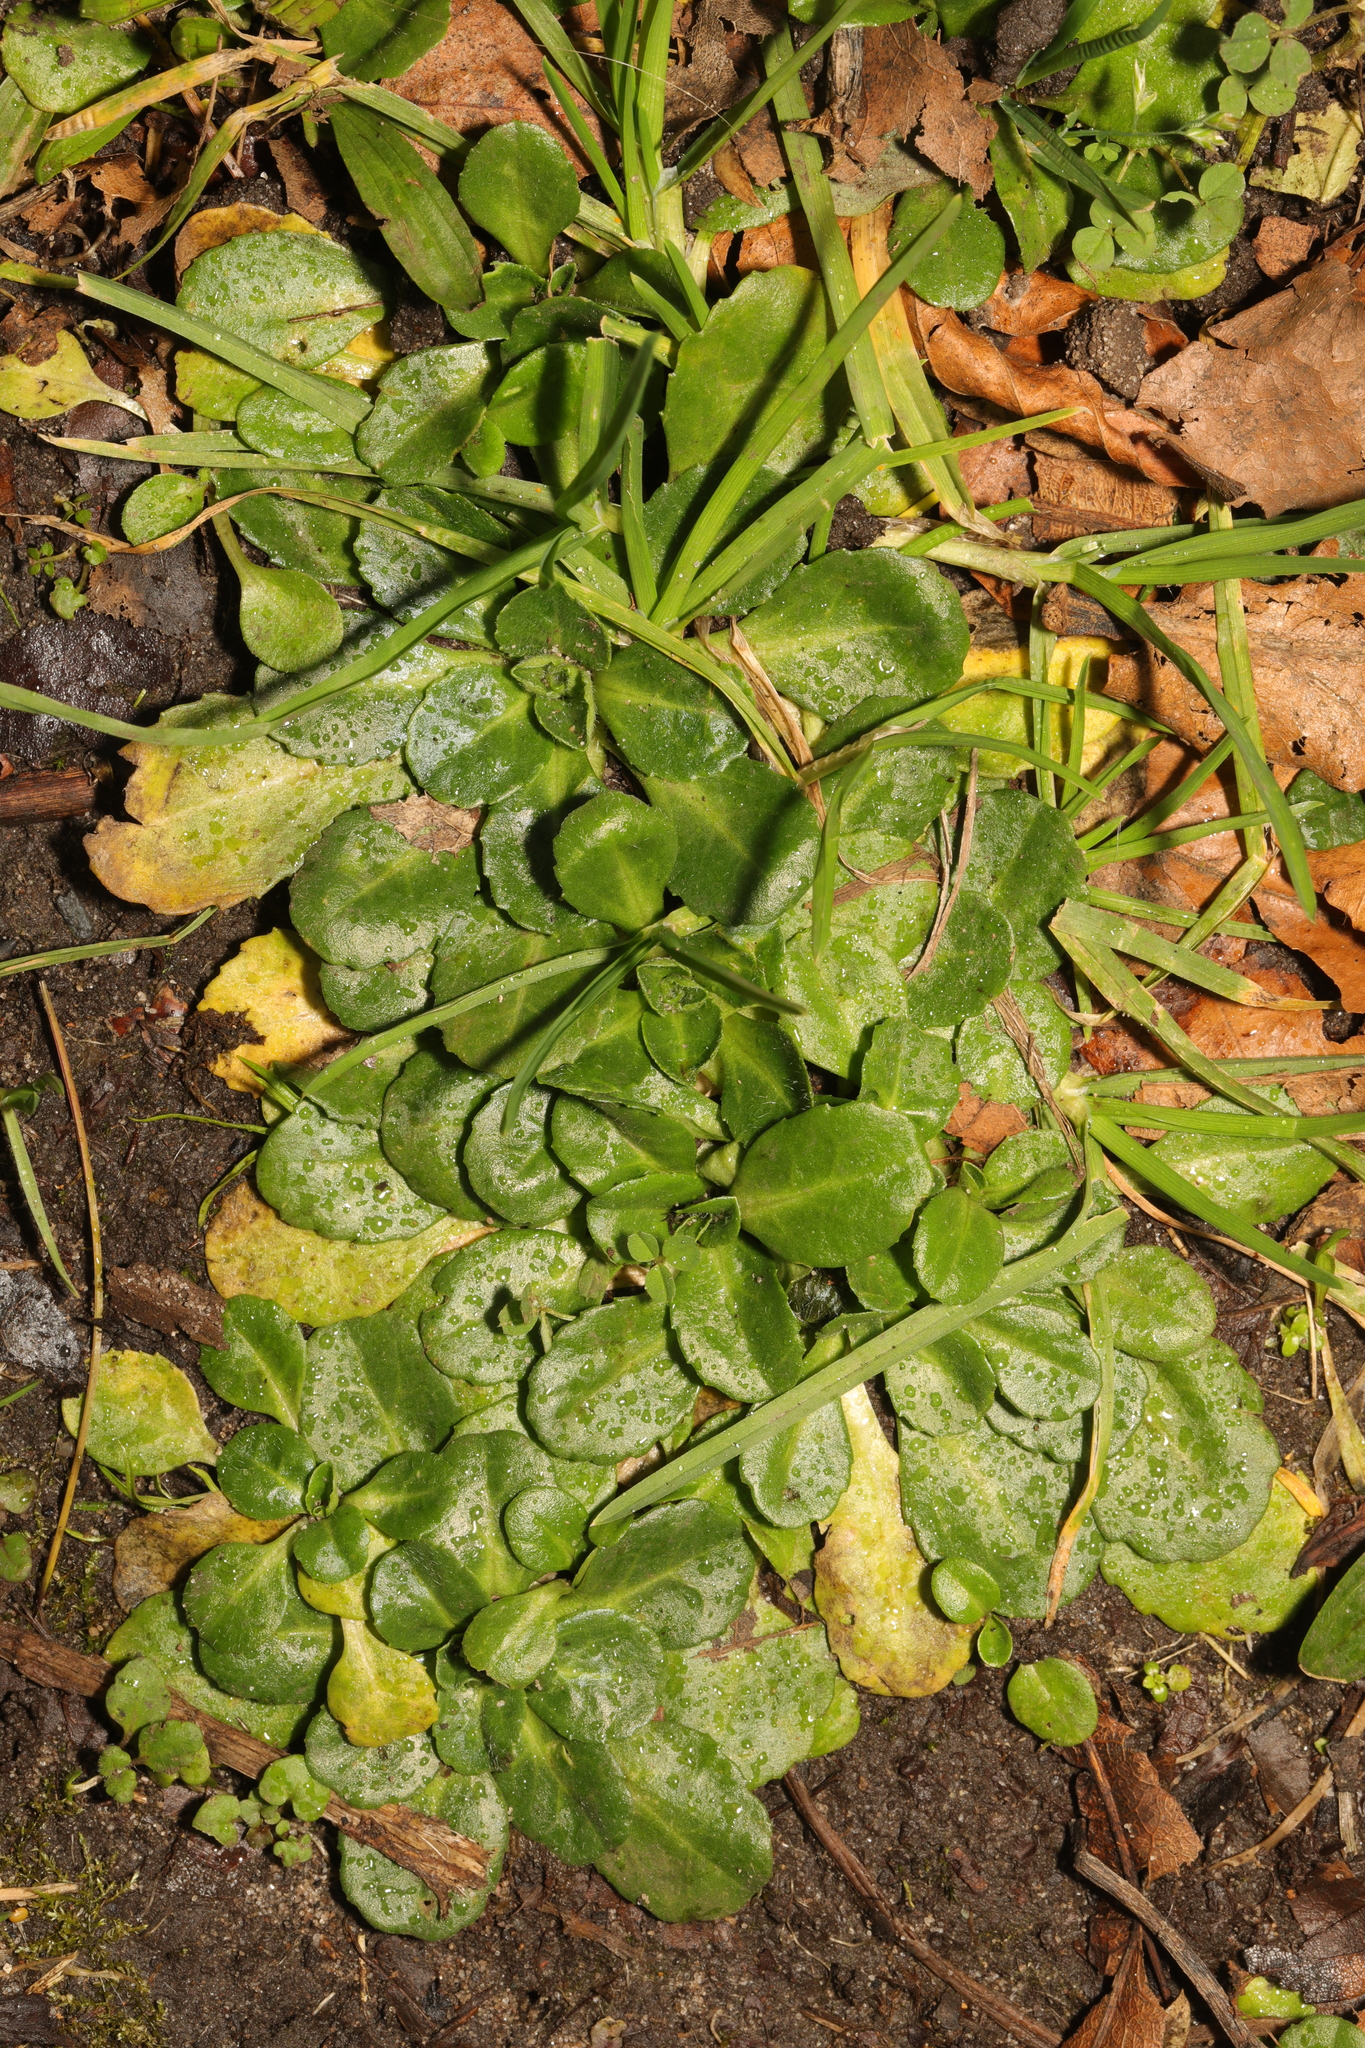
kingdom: Plantae
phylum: Tracheophyta
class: Magnoliopsida
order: Asterales
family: Asteraceae
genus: Bellis
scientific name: Bellis perennis
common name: Lawndaisy
